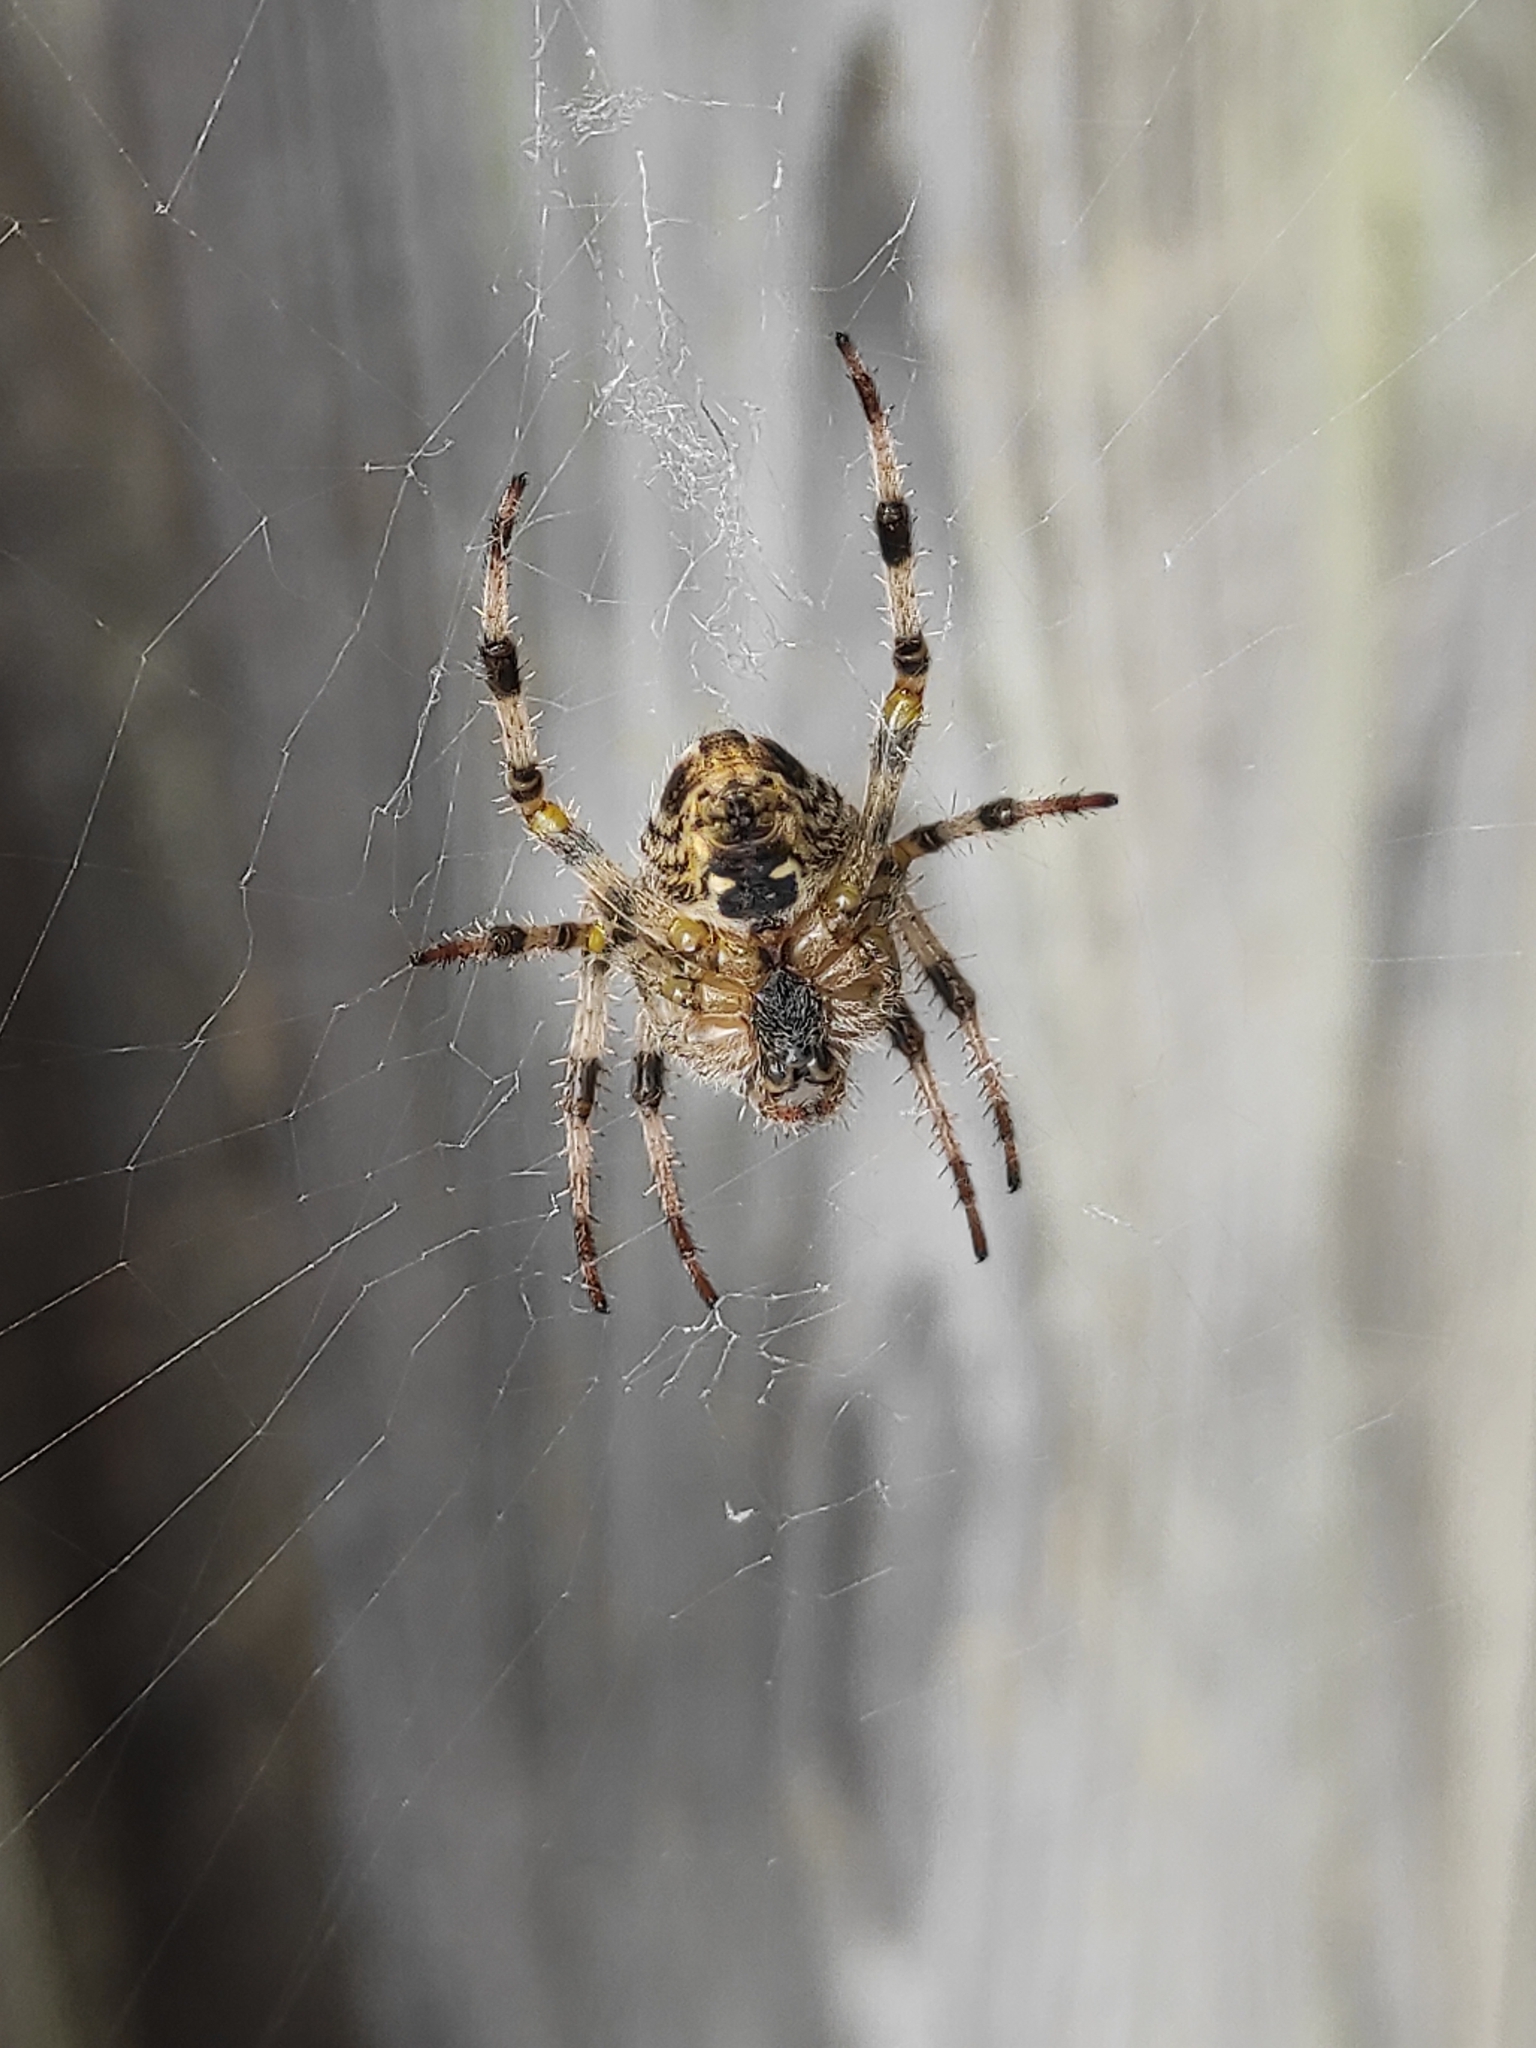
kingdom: Animalia
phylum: Arthropoda
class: Arachnida
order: Araneae
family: Araneidae
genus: Araneus
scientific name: Araneus diadematus
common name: Cross orbweaver
